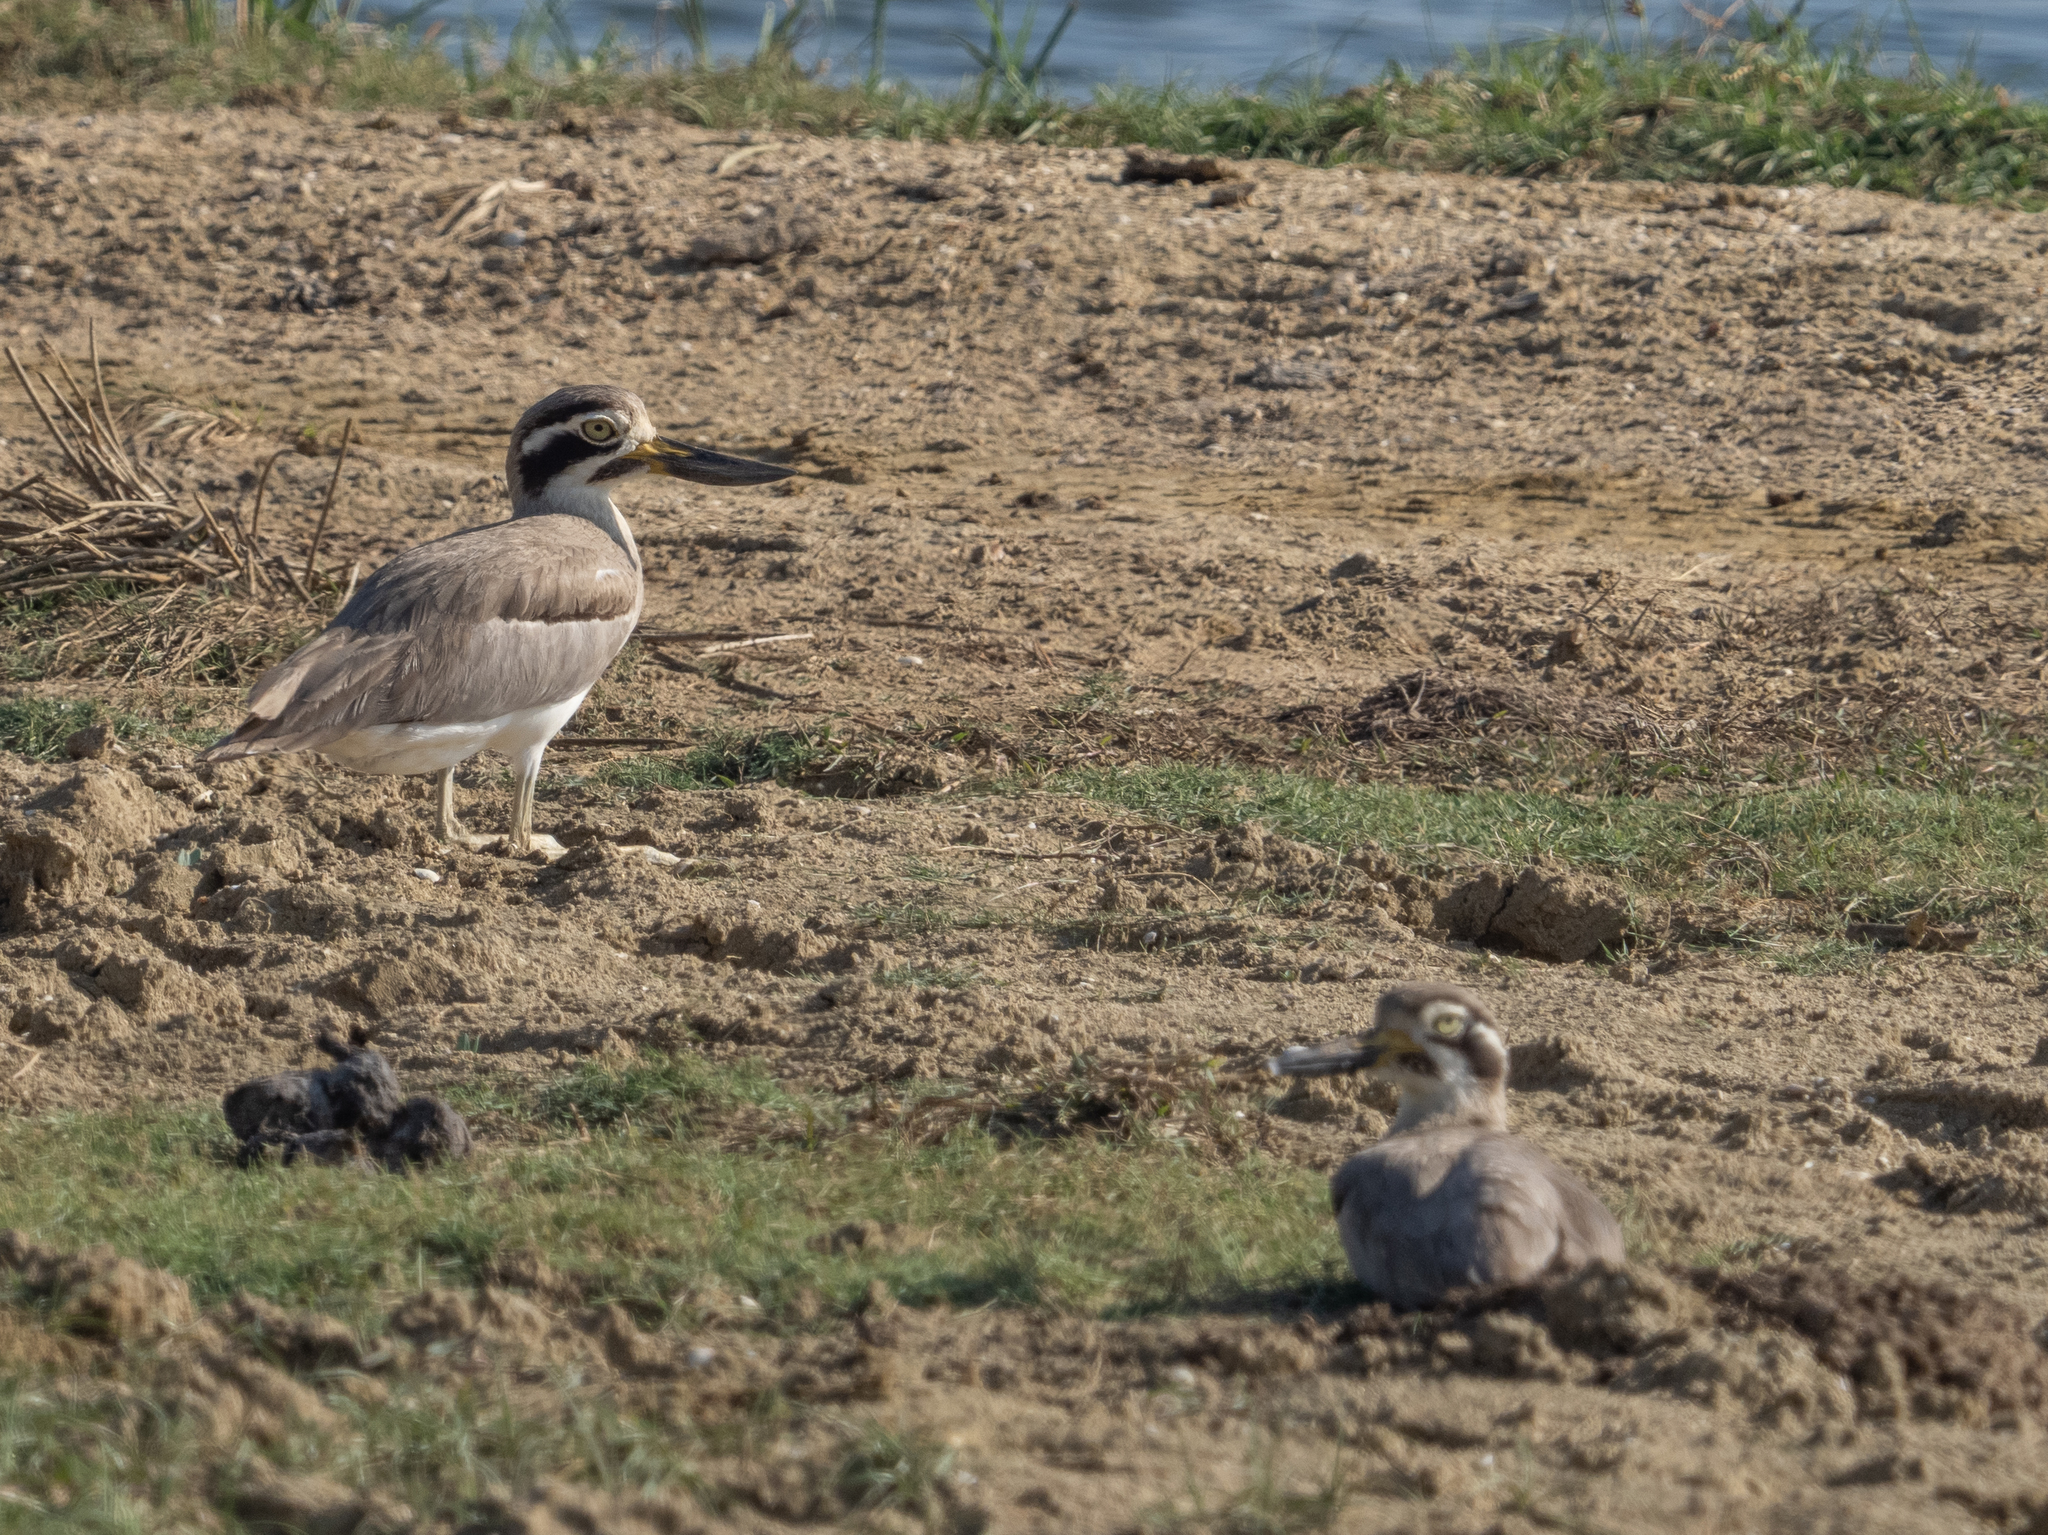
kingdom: Animalia
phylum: Chordata
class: Aves
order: Charadriiformes
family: Burhinidae
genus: Esacus
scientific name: Esacus recurvirostris
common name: Great stone-curlew
